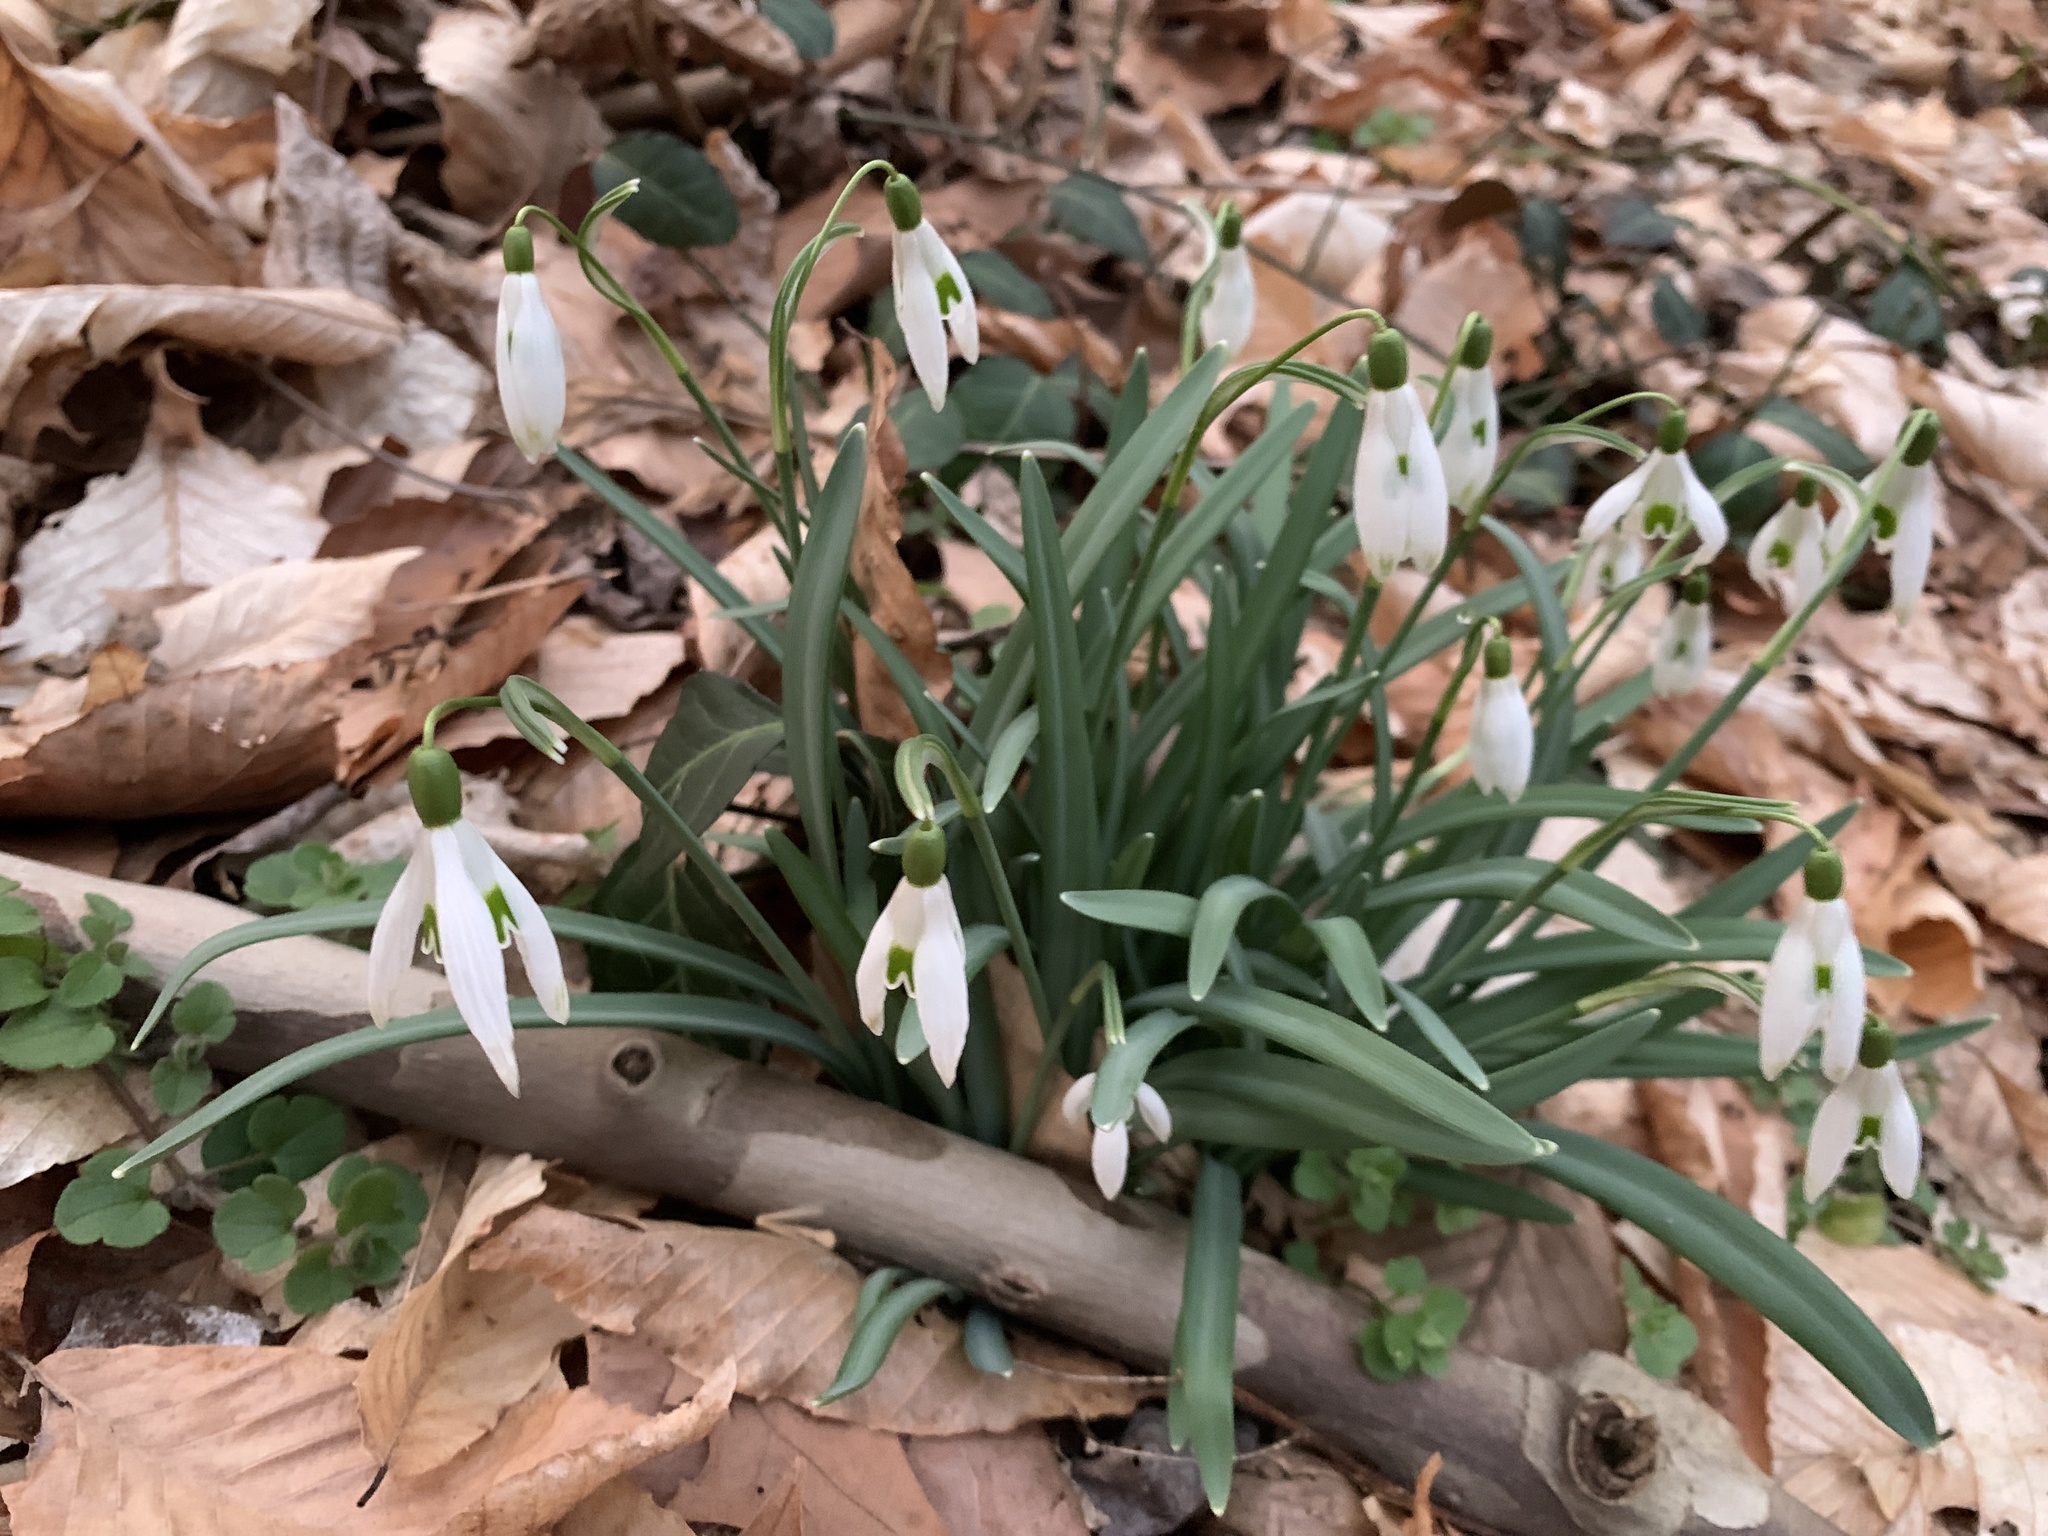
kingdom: Plantae
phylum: Tracheophyta
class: Liliopsida
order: Asparagales
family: Amaryllidaceae
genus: Galanthus
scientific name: Galanthus nivalis
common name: Snowdrop
